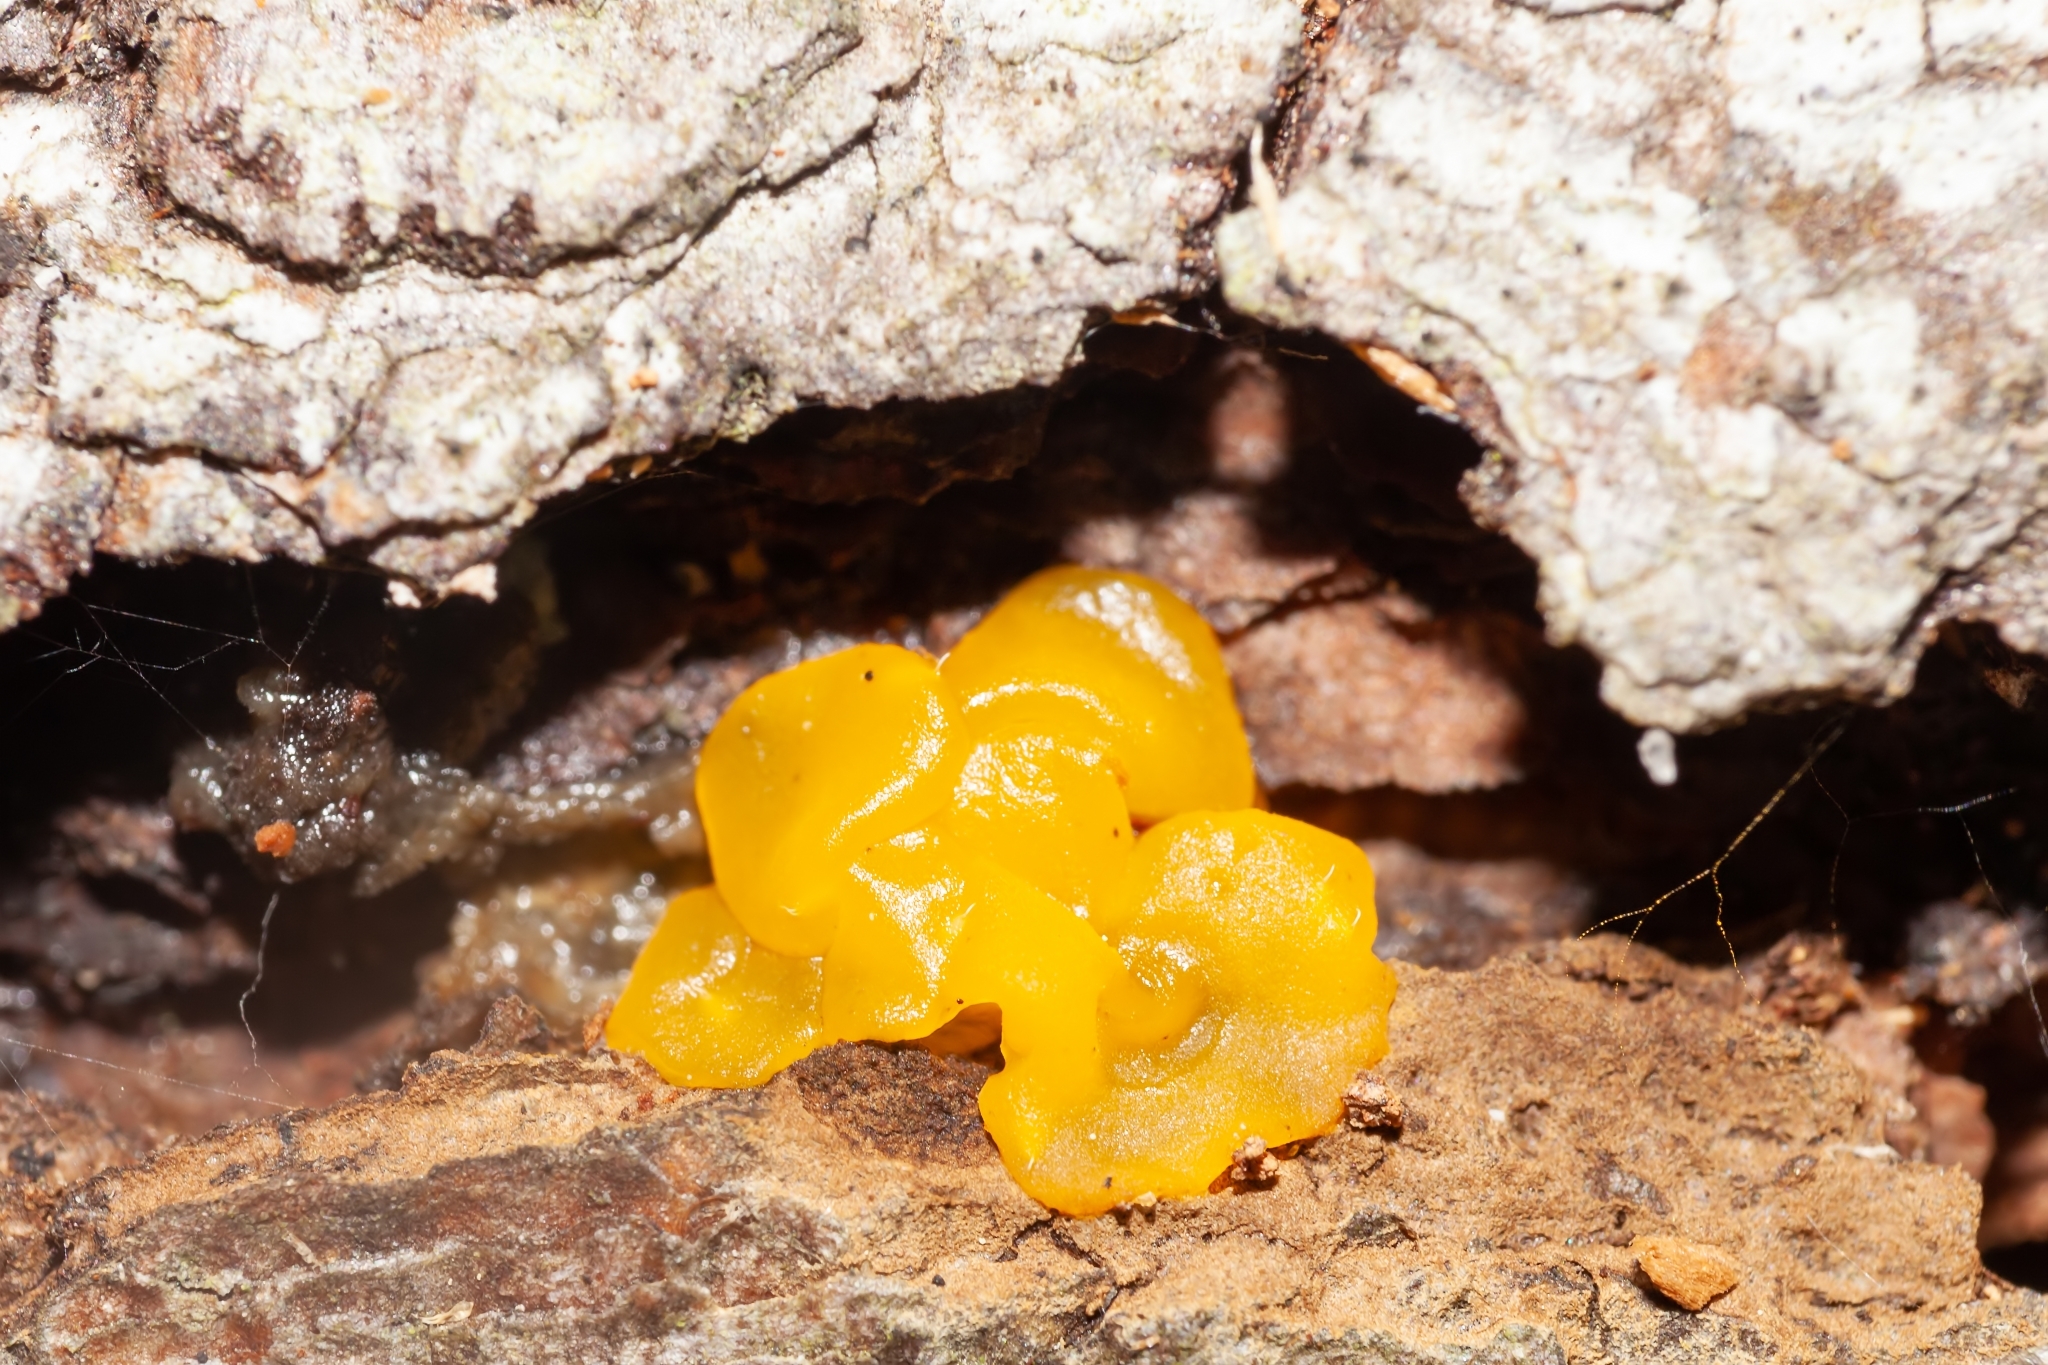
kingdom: Fungi
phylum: Basidiomycota
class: Dacrymycetes
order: Dacrymycetales
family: Dacrymycetaceae
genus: Dacrymyces
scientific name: Dacrymyces chrysospermus
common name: Orange jelly spot
